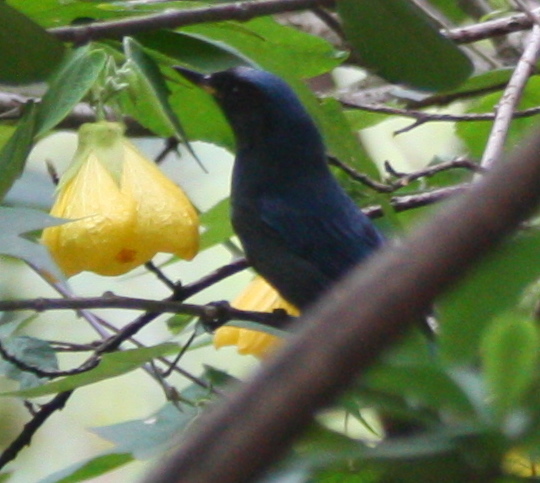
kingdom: Animalia
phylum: Chordata
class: Aves
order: Passeriformes
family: Thraupidae
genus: Diglossa
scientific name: Diglossa humeralis
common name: Black flowerpiercer
